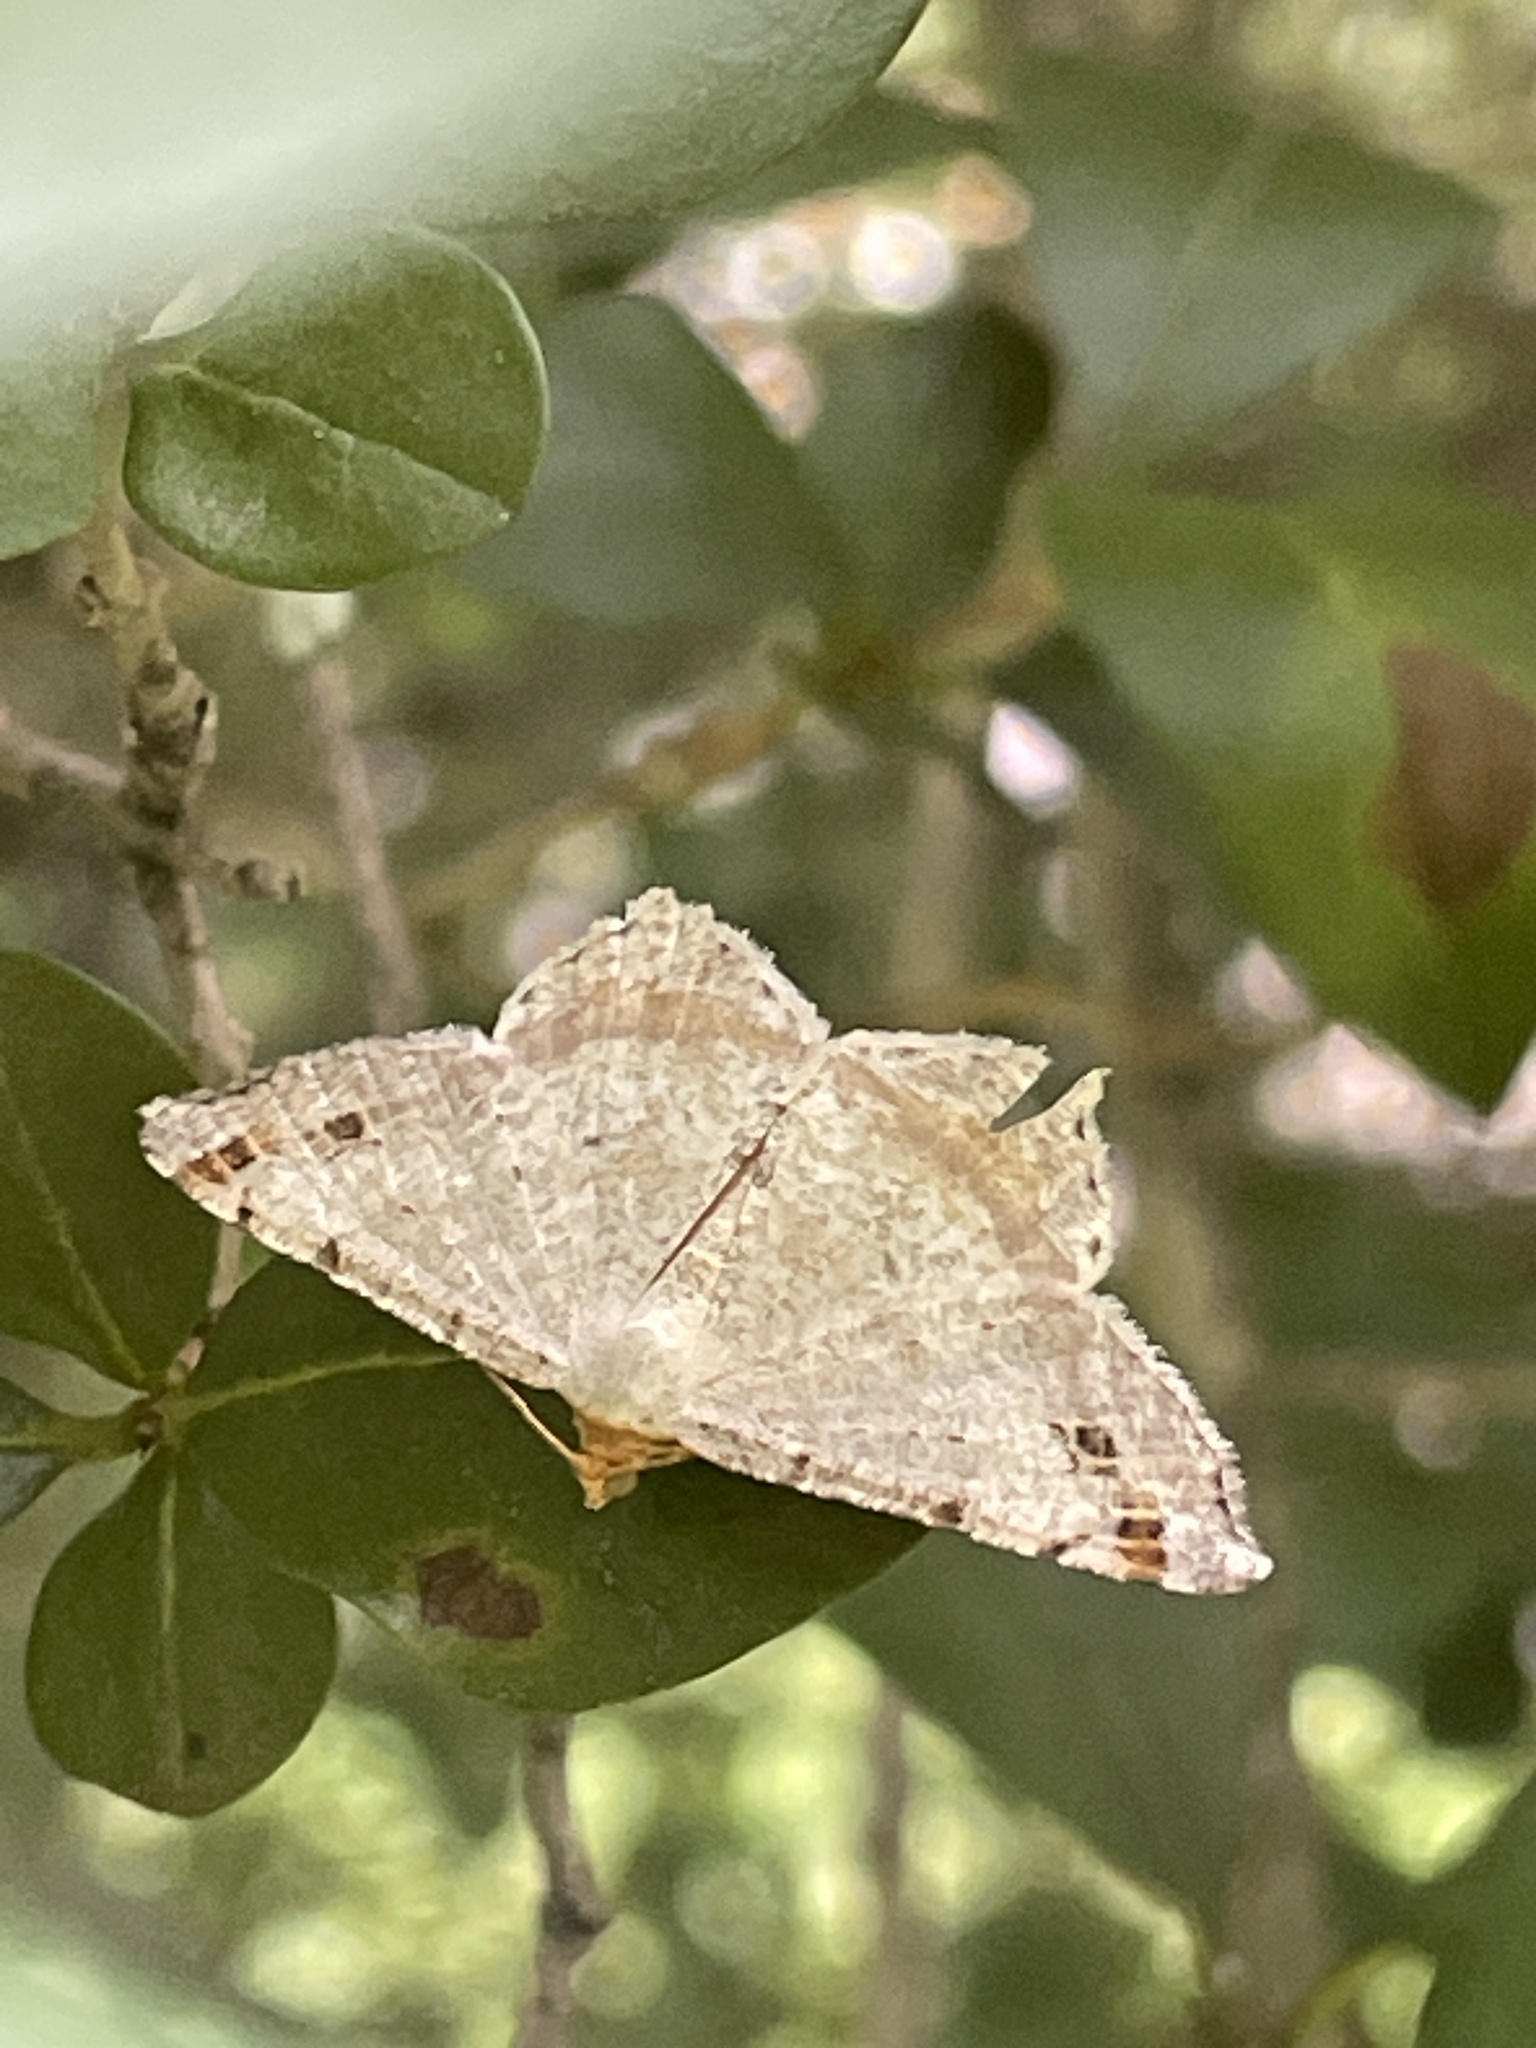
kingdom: Animalia
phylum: Arthropoda
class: Insecta
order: Lepidoptera
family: Geometridae
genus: Macaria
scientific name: Macaria bisignata
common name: Red-headed inchworm
